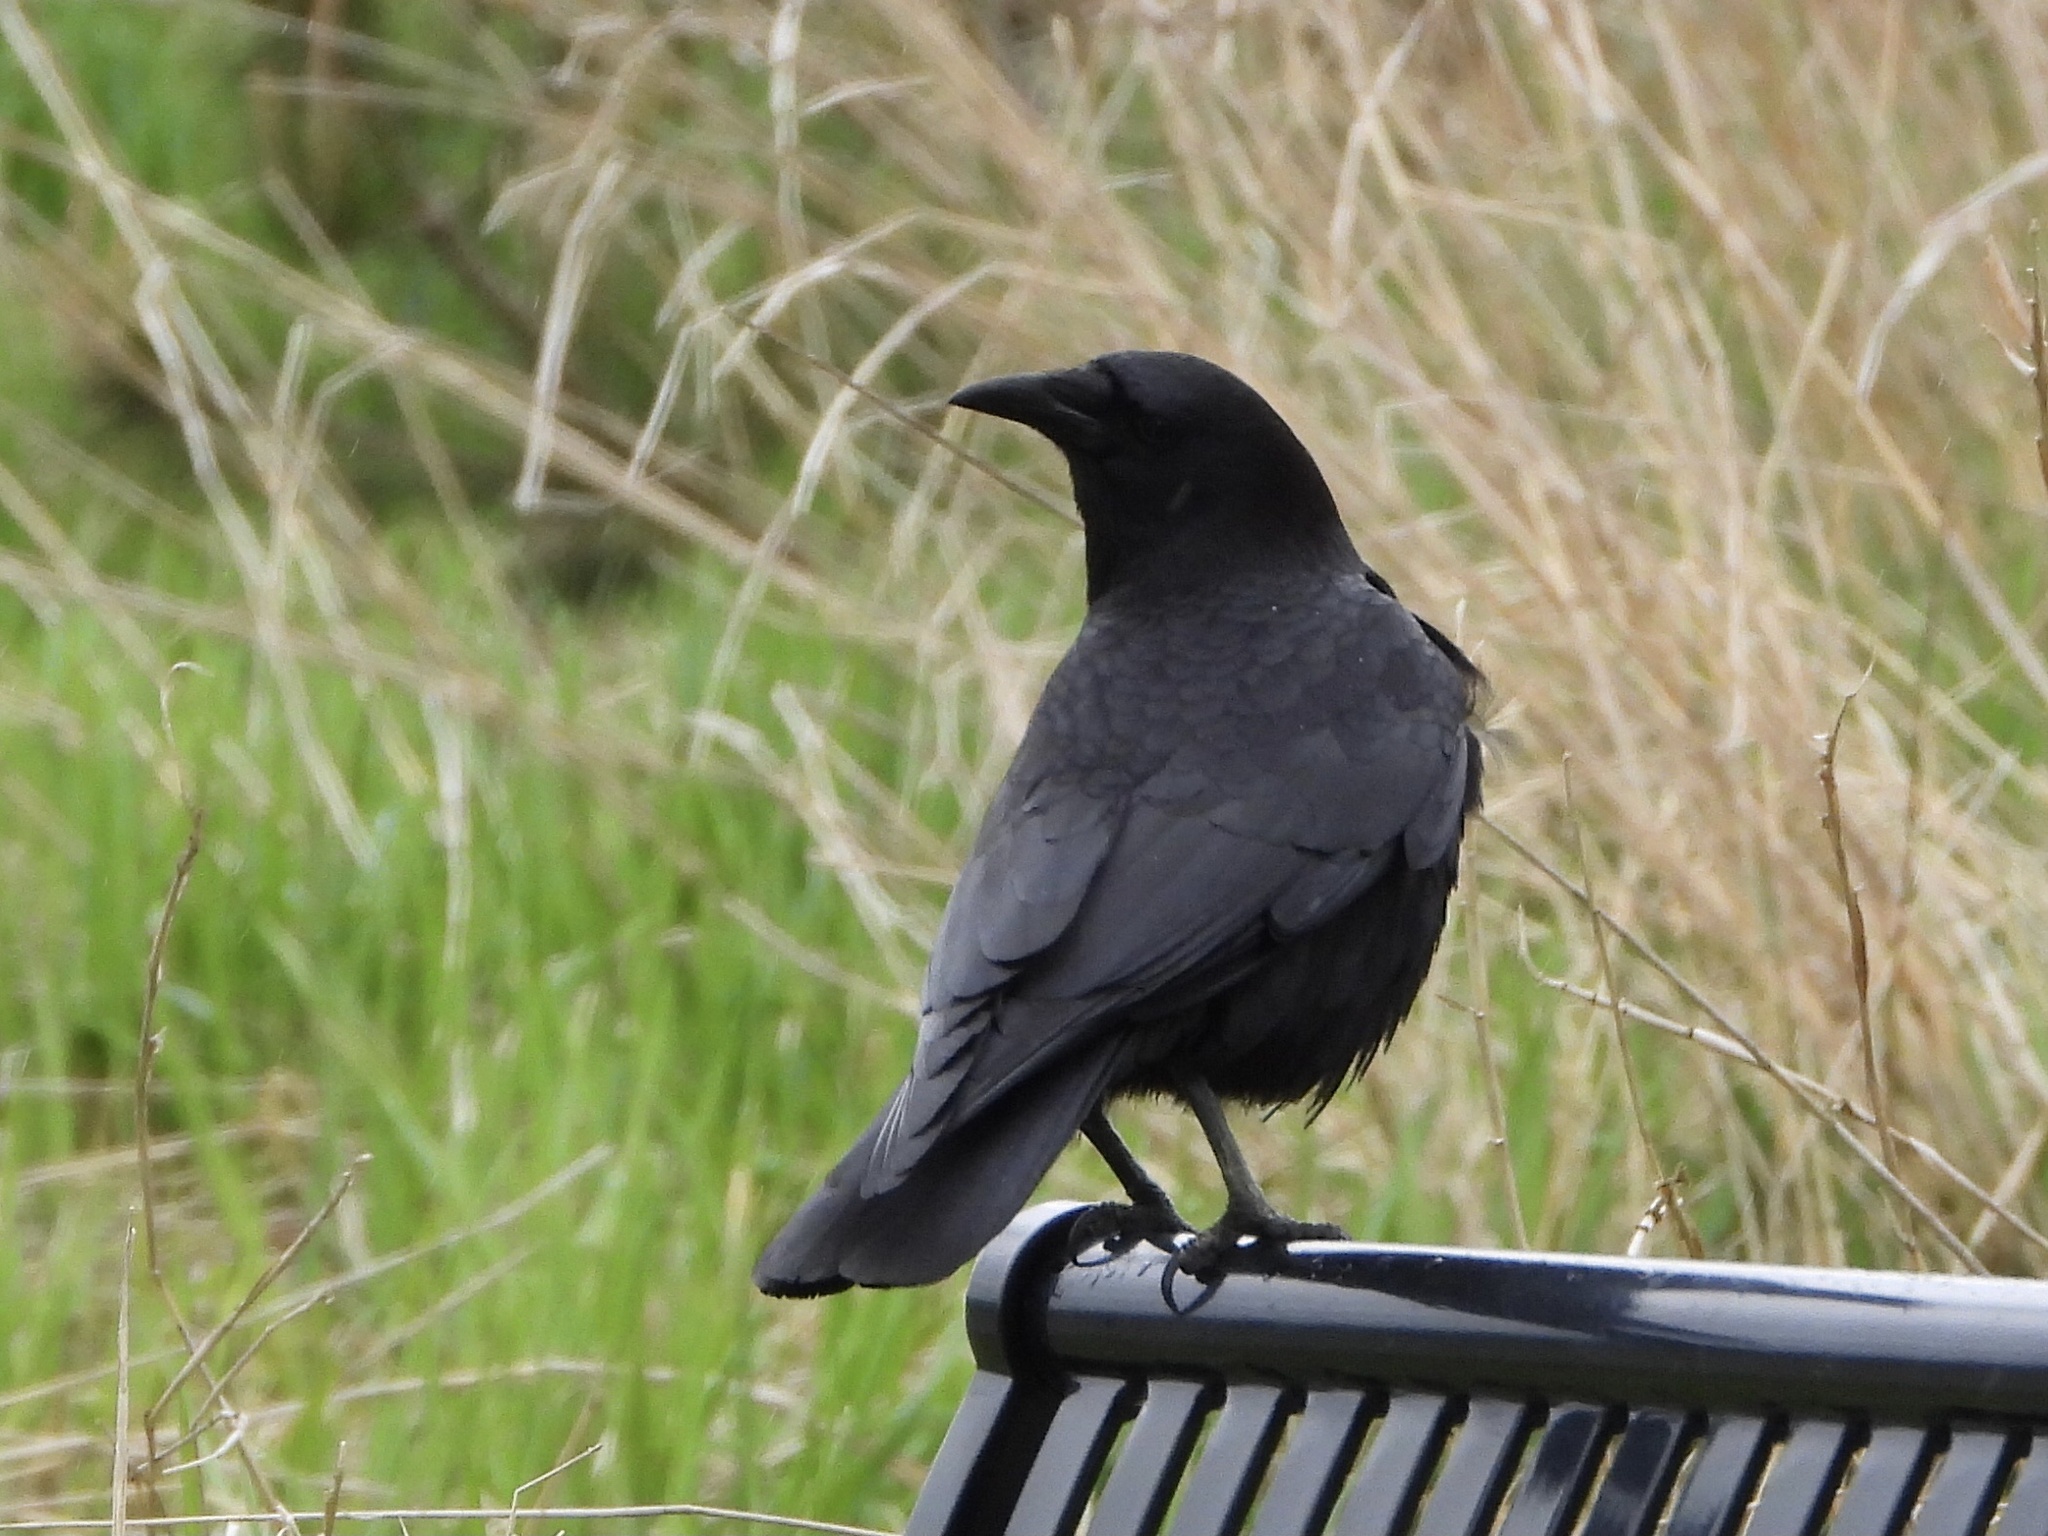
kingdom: Animalia
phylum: Chordata
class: Aves
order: Passeriformes
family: Corvidae
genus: Corvus
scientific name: Corvus brachyrhynchos
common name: American crow
